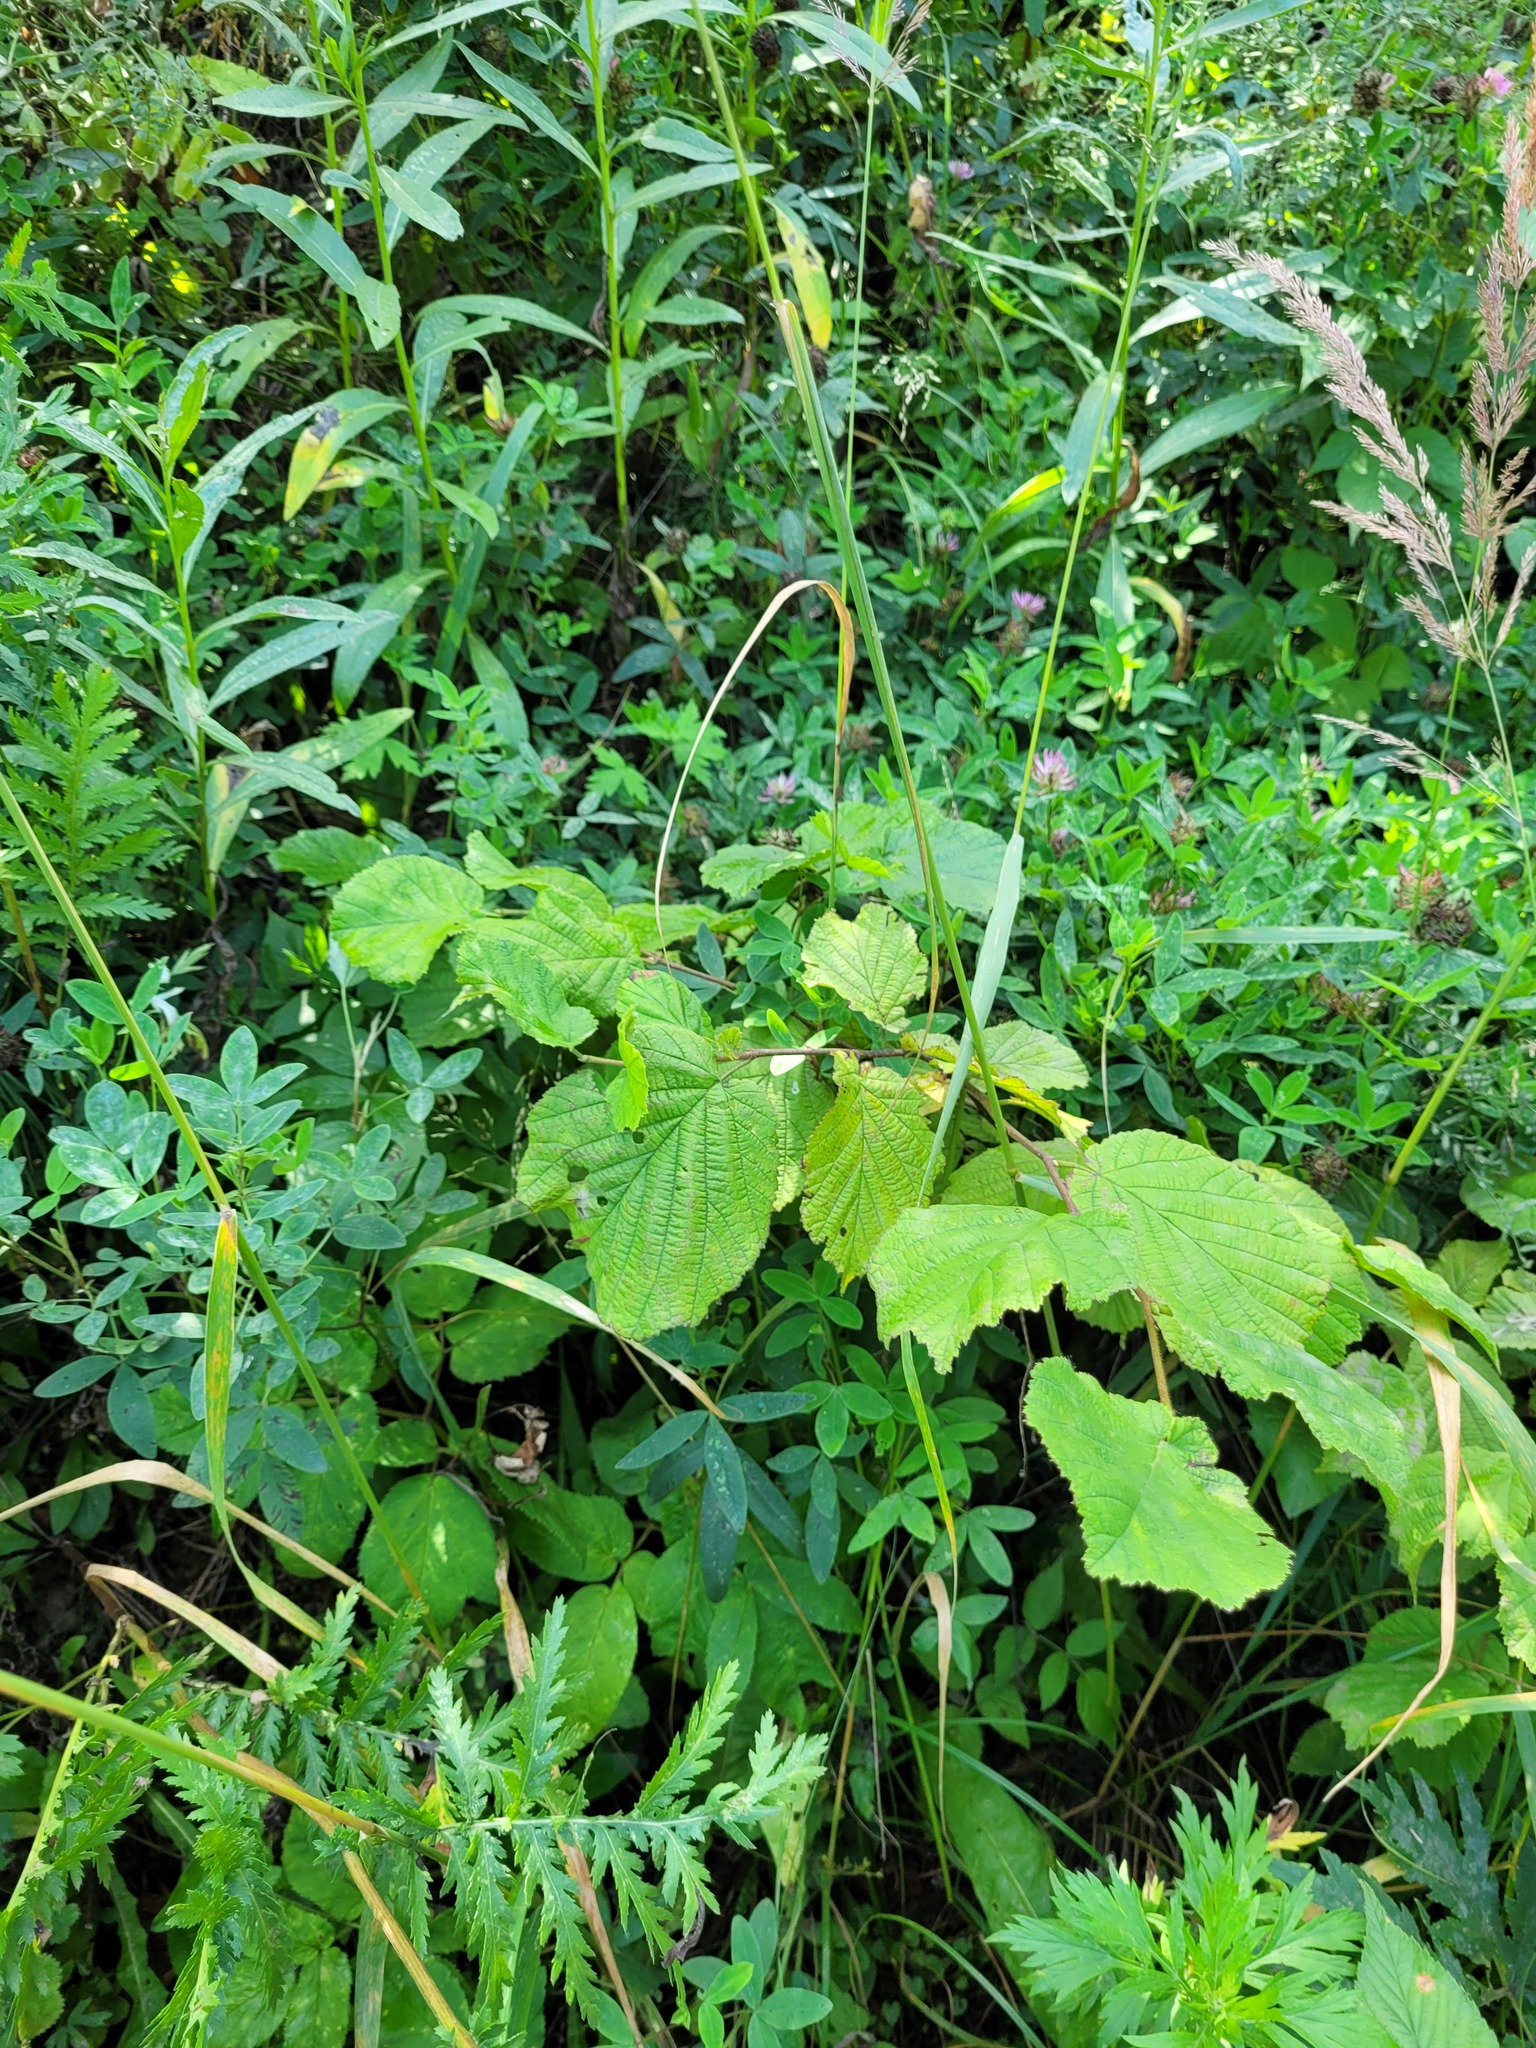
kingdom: Plantae
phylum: Tracheophyta
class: Magnoliopsida
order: Fagales
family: Betulaceae
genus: Corylus
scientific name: Corylus avellana
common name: European hazel
